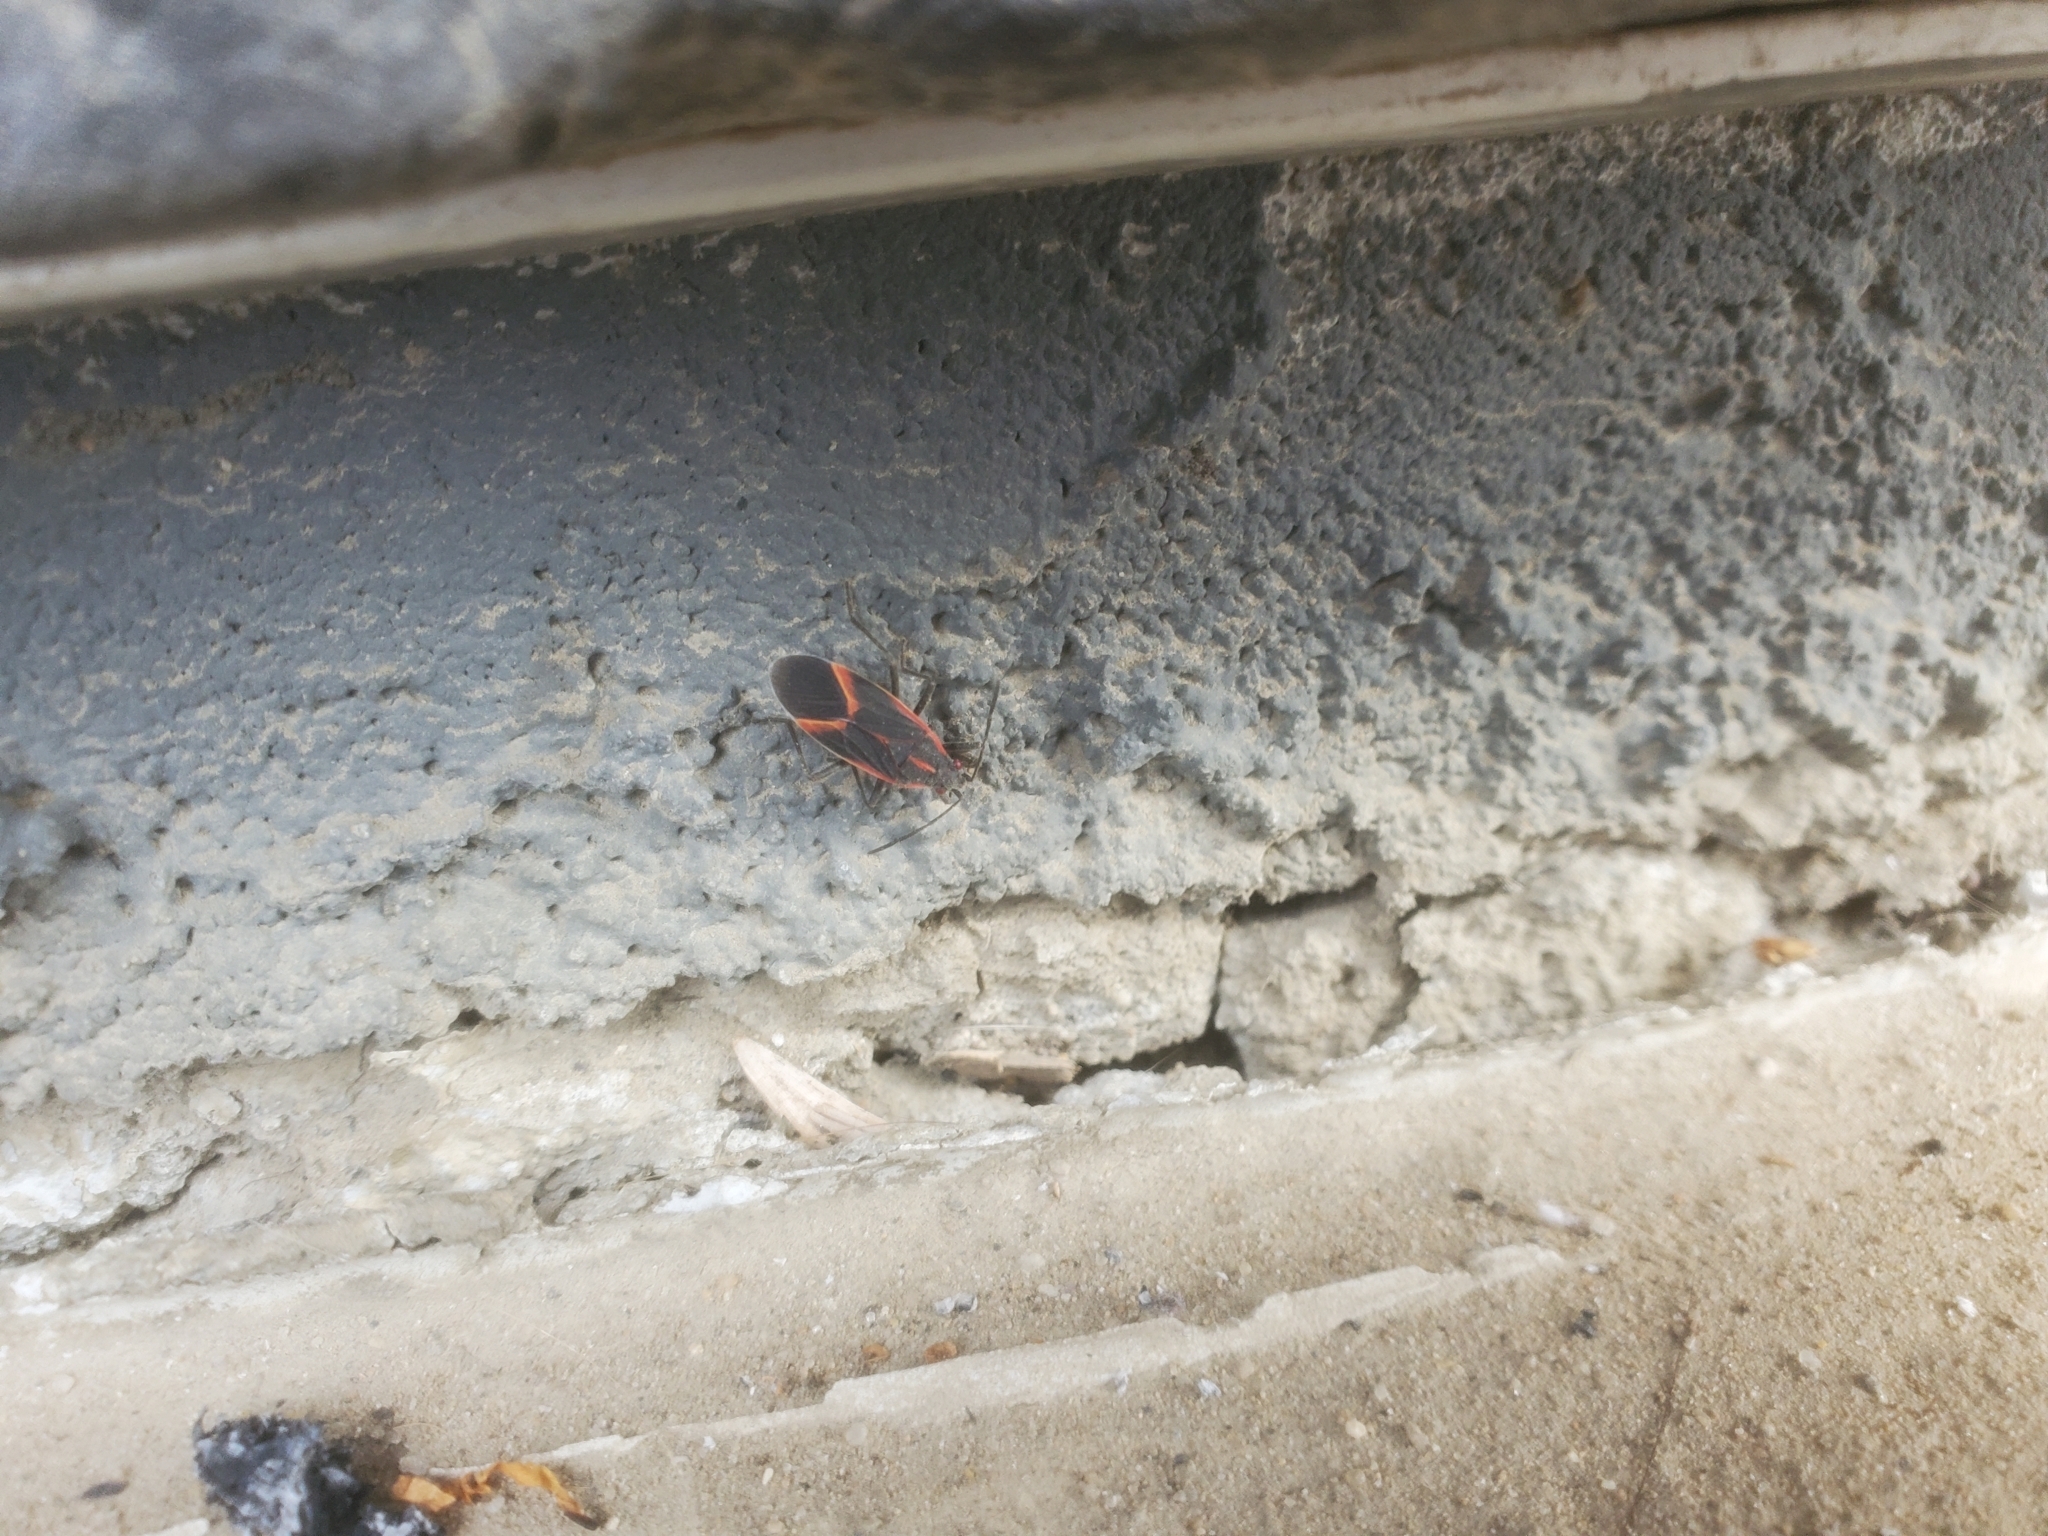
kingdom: Animalia
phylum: Arthropoda
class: Insecta
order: Hemiptera
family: Rhopalidae
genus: Boisea
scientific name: Boisea trivittata
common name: Boxelder bug
